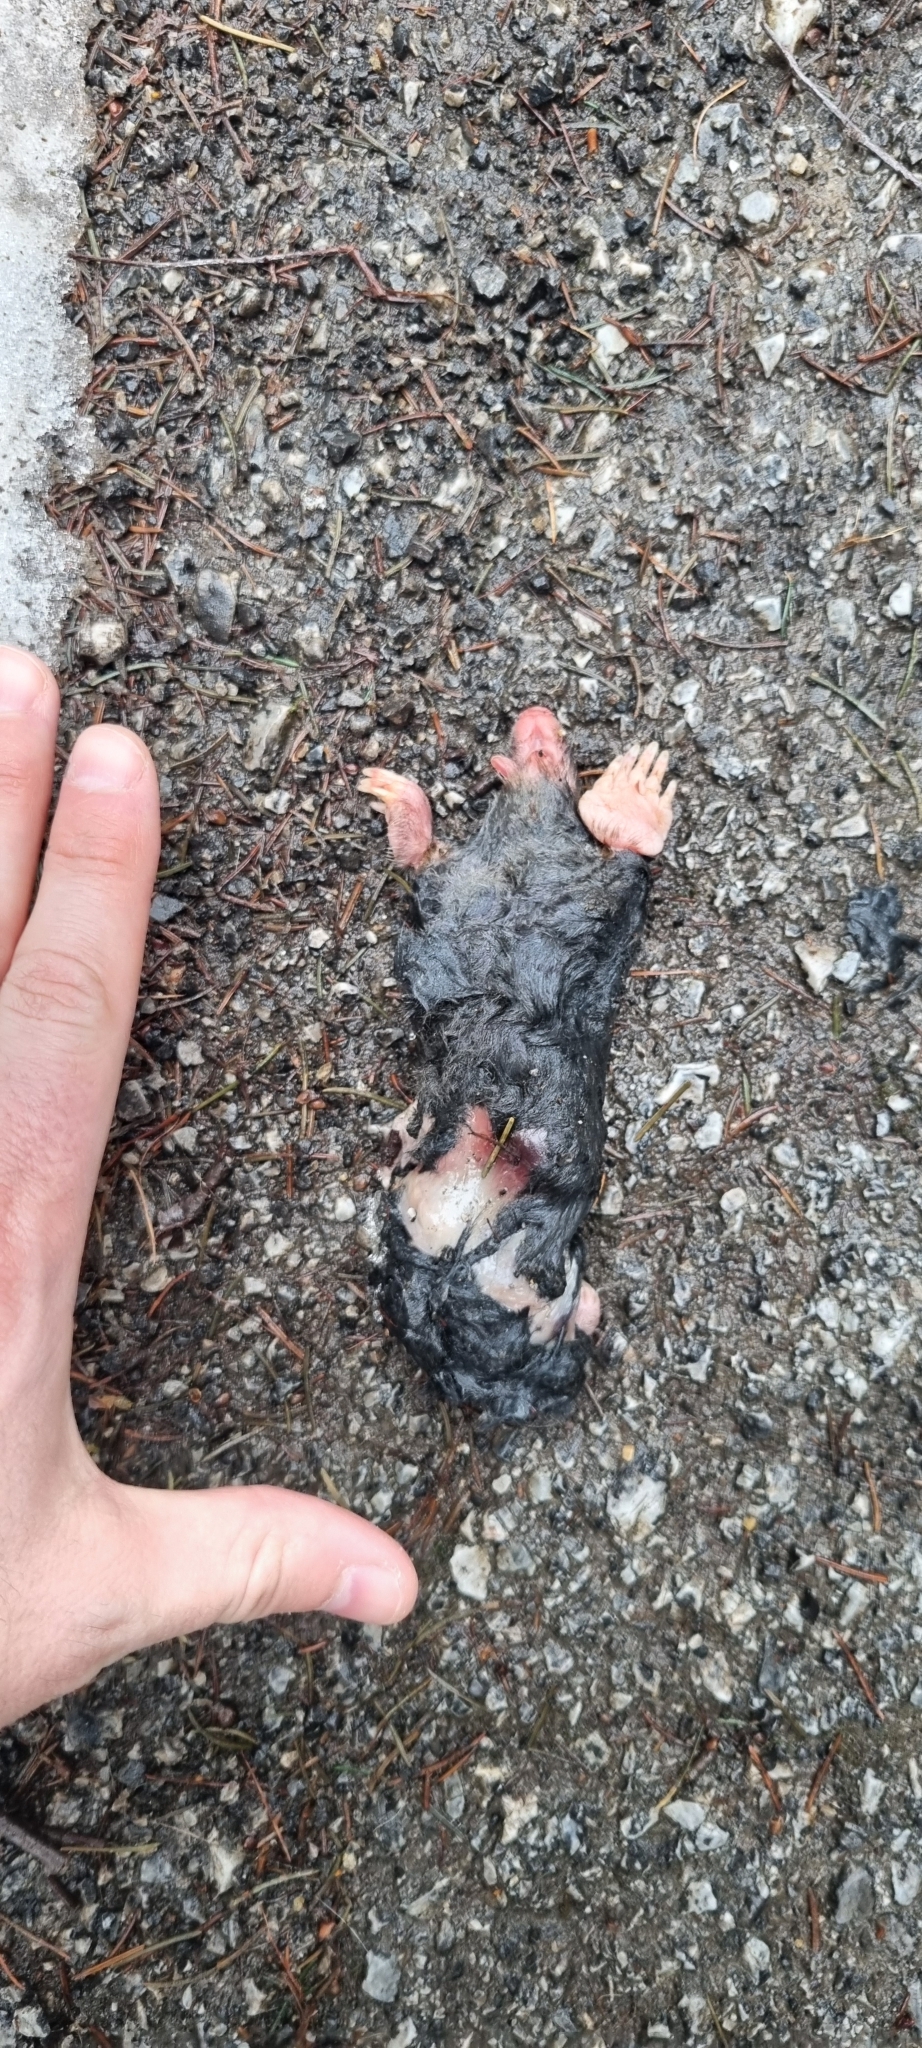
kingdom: Animalia
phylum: Chordata
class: Mammalia
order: Soricomorpha
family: Talpidae
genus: Talpa
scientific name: Talpa europaea
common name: European mole
